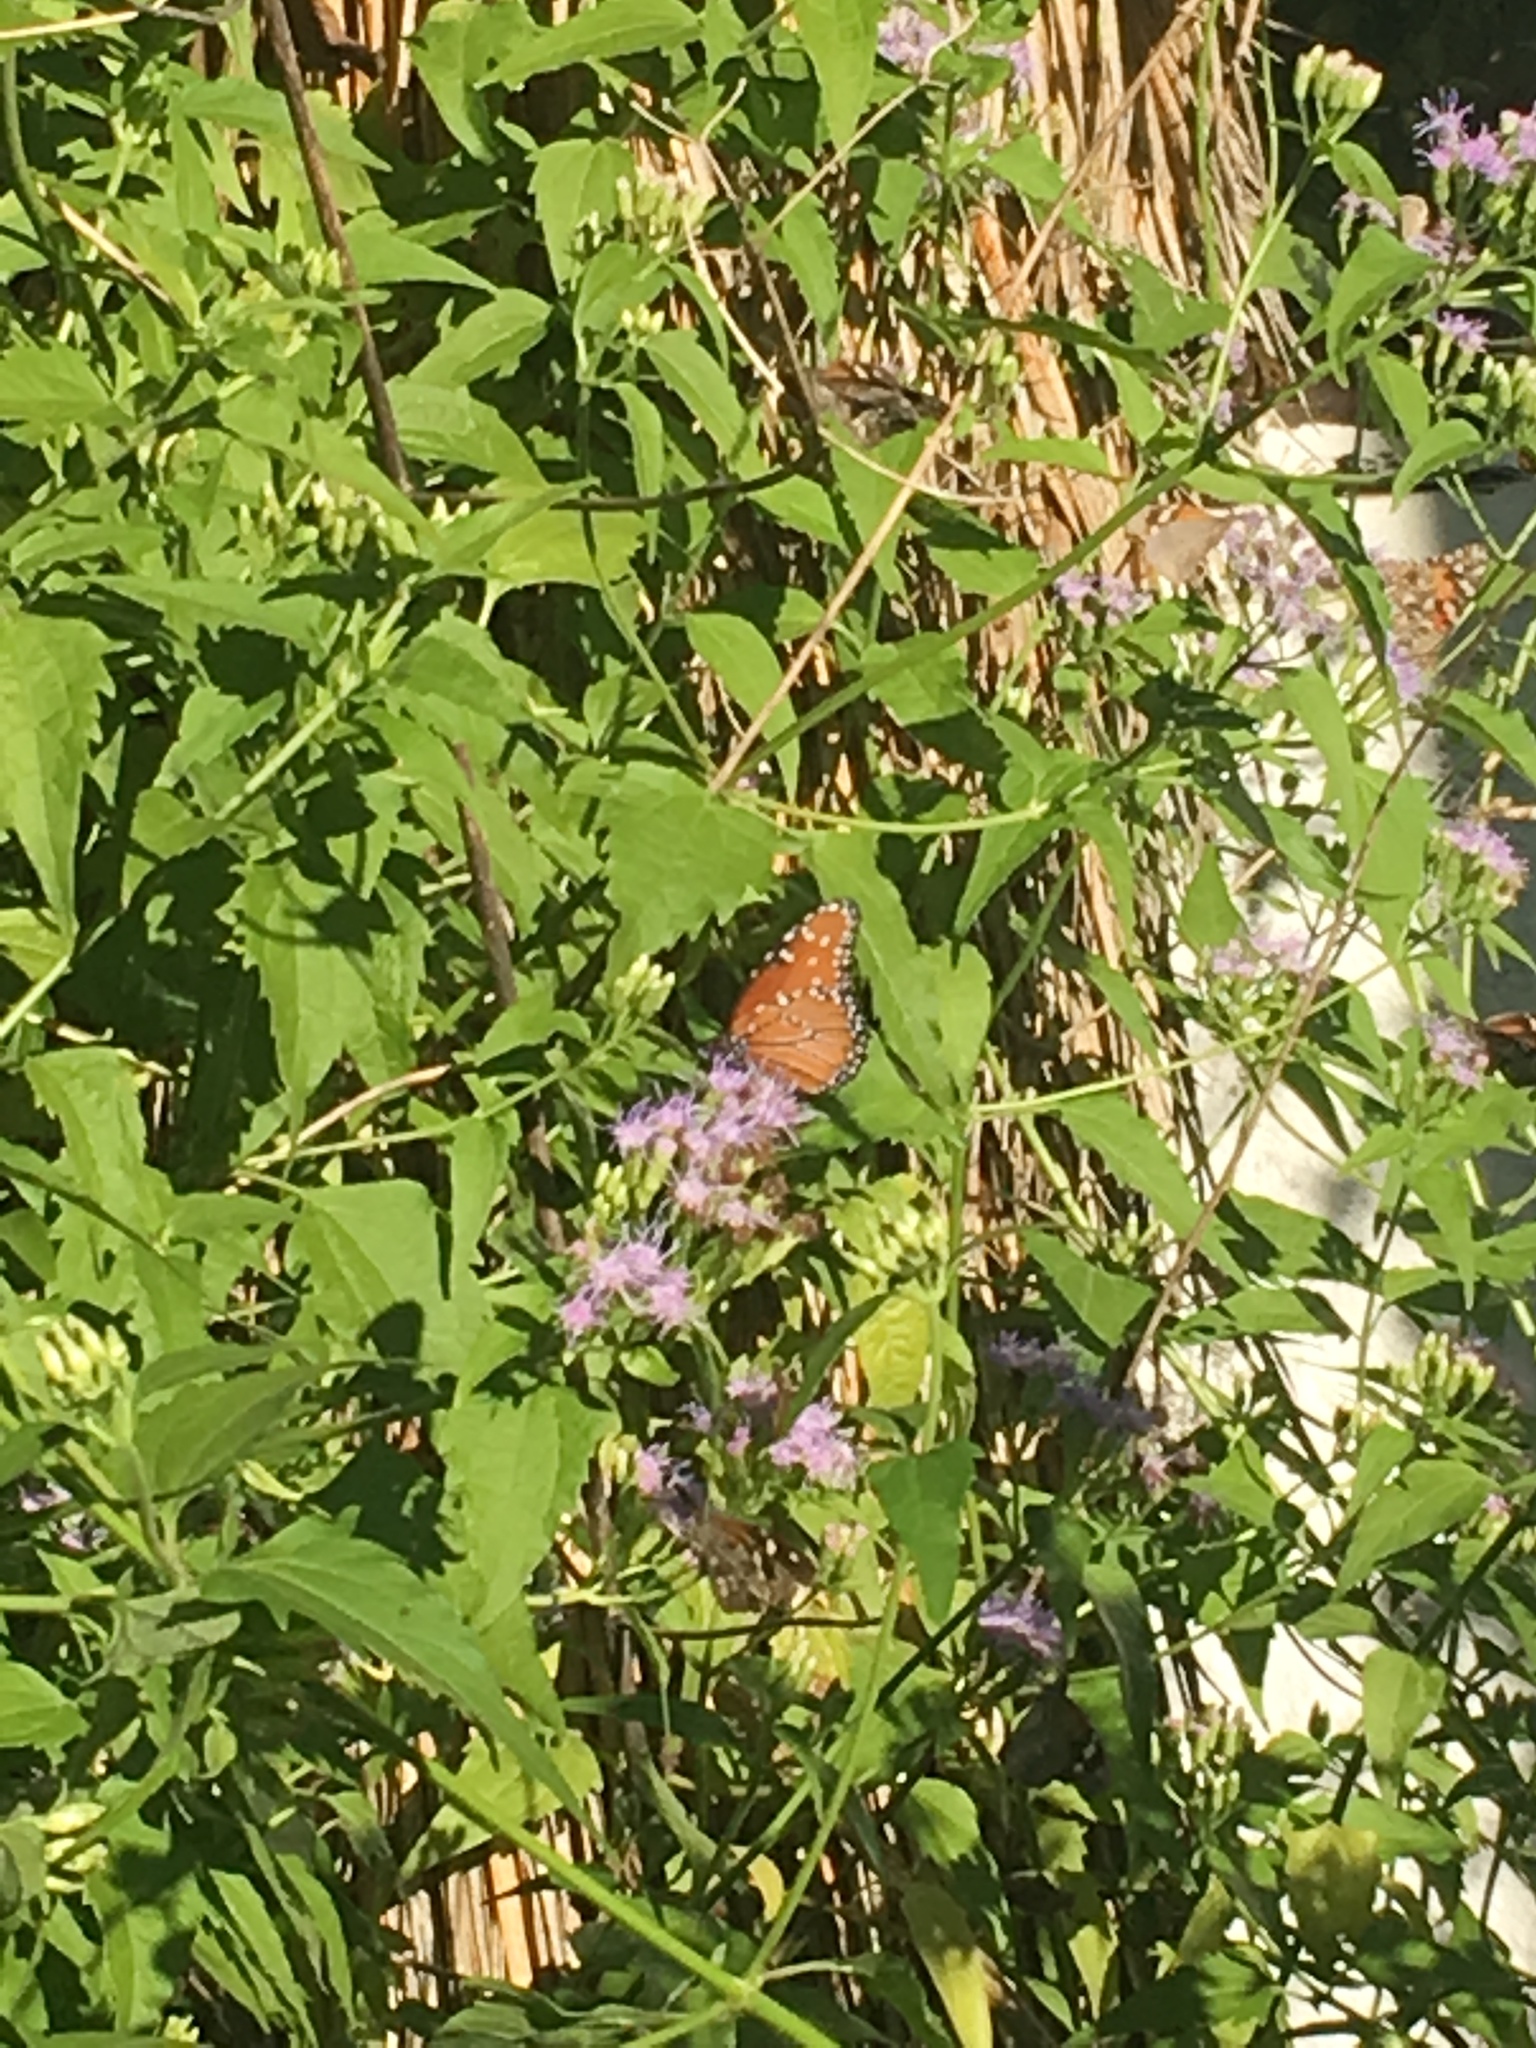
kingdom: Animalia
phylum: Arthropoda
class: Insecta
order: Lepidoptera
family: Nymphalidae
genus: Danaus
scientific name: Danaus gilippus
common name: Queen
